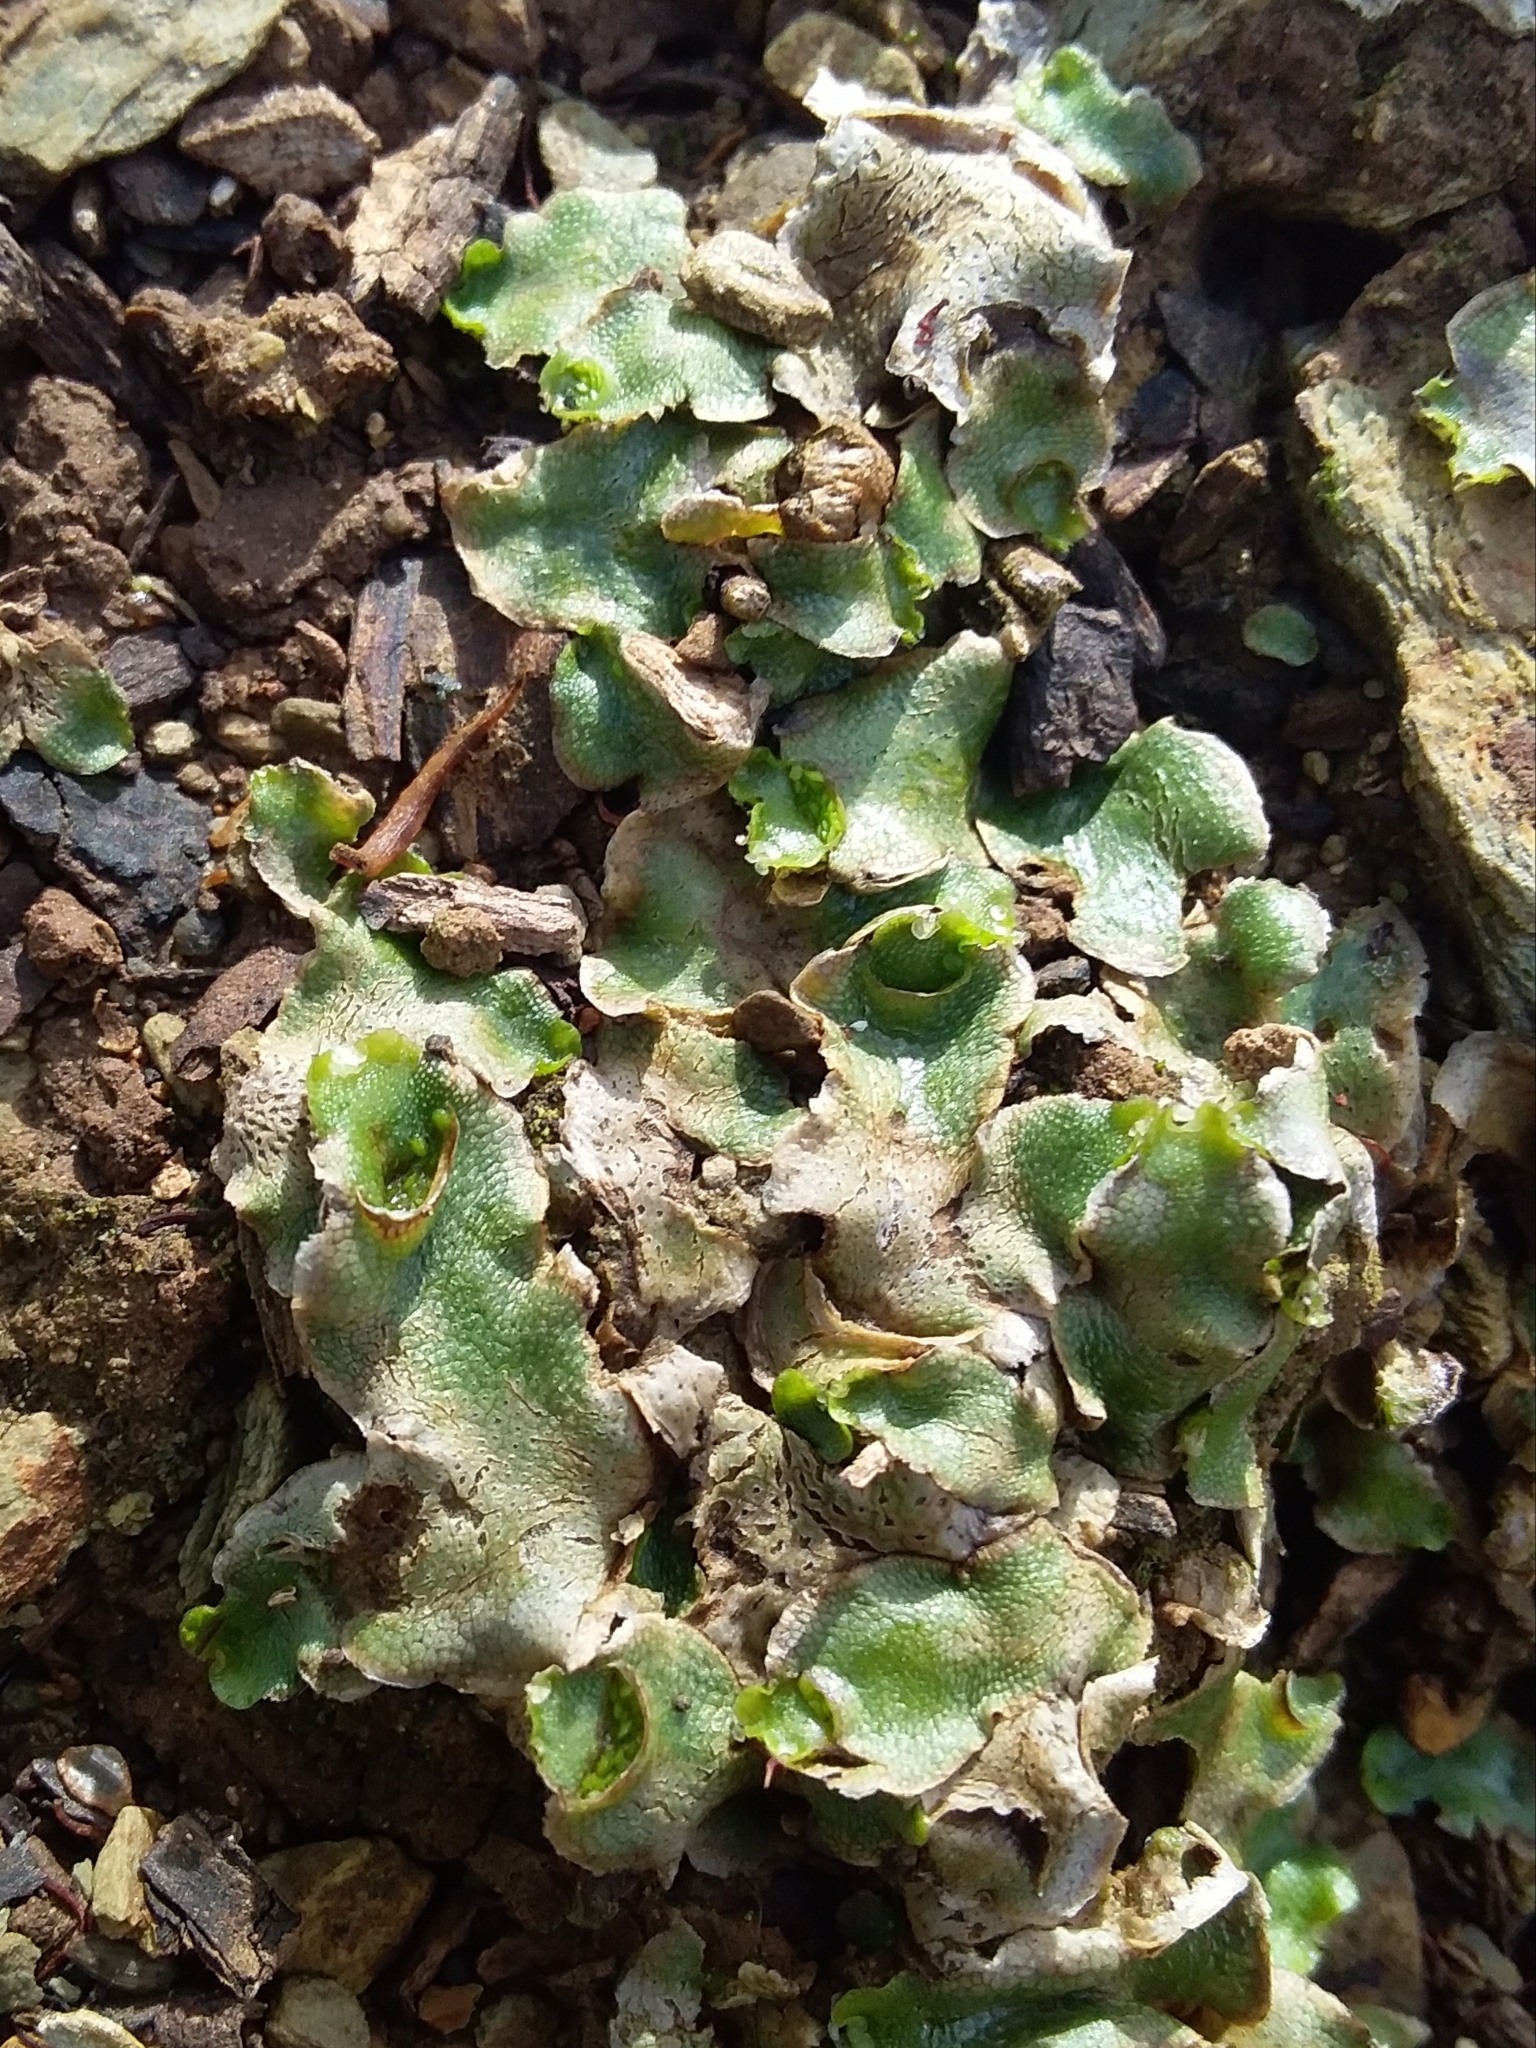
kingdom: Plantae
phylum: Marchantiophyta
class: Marchantiopsida
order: Lunulariales
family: Lunulariaceae
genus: Lunularia
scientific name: Lunularia cruciata
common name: Crescent-cup liverwort
